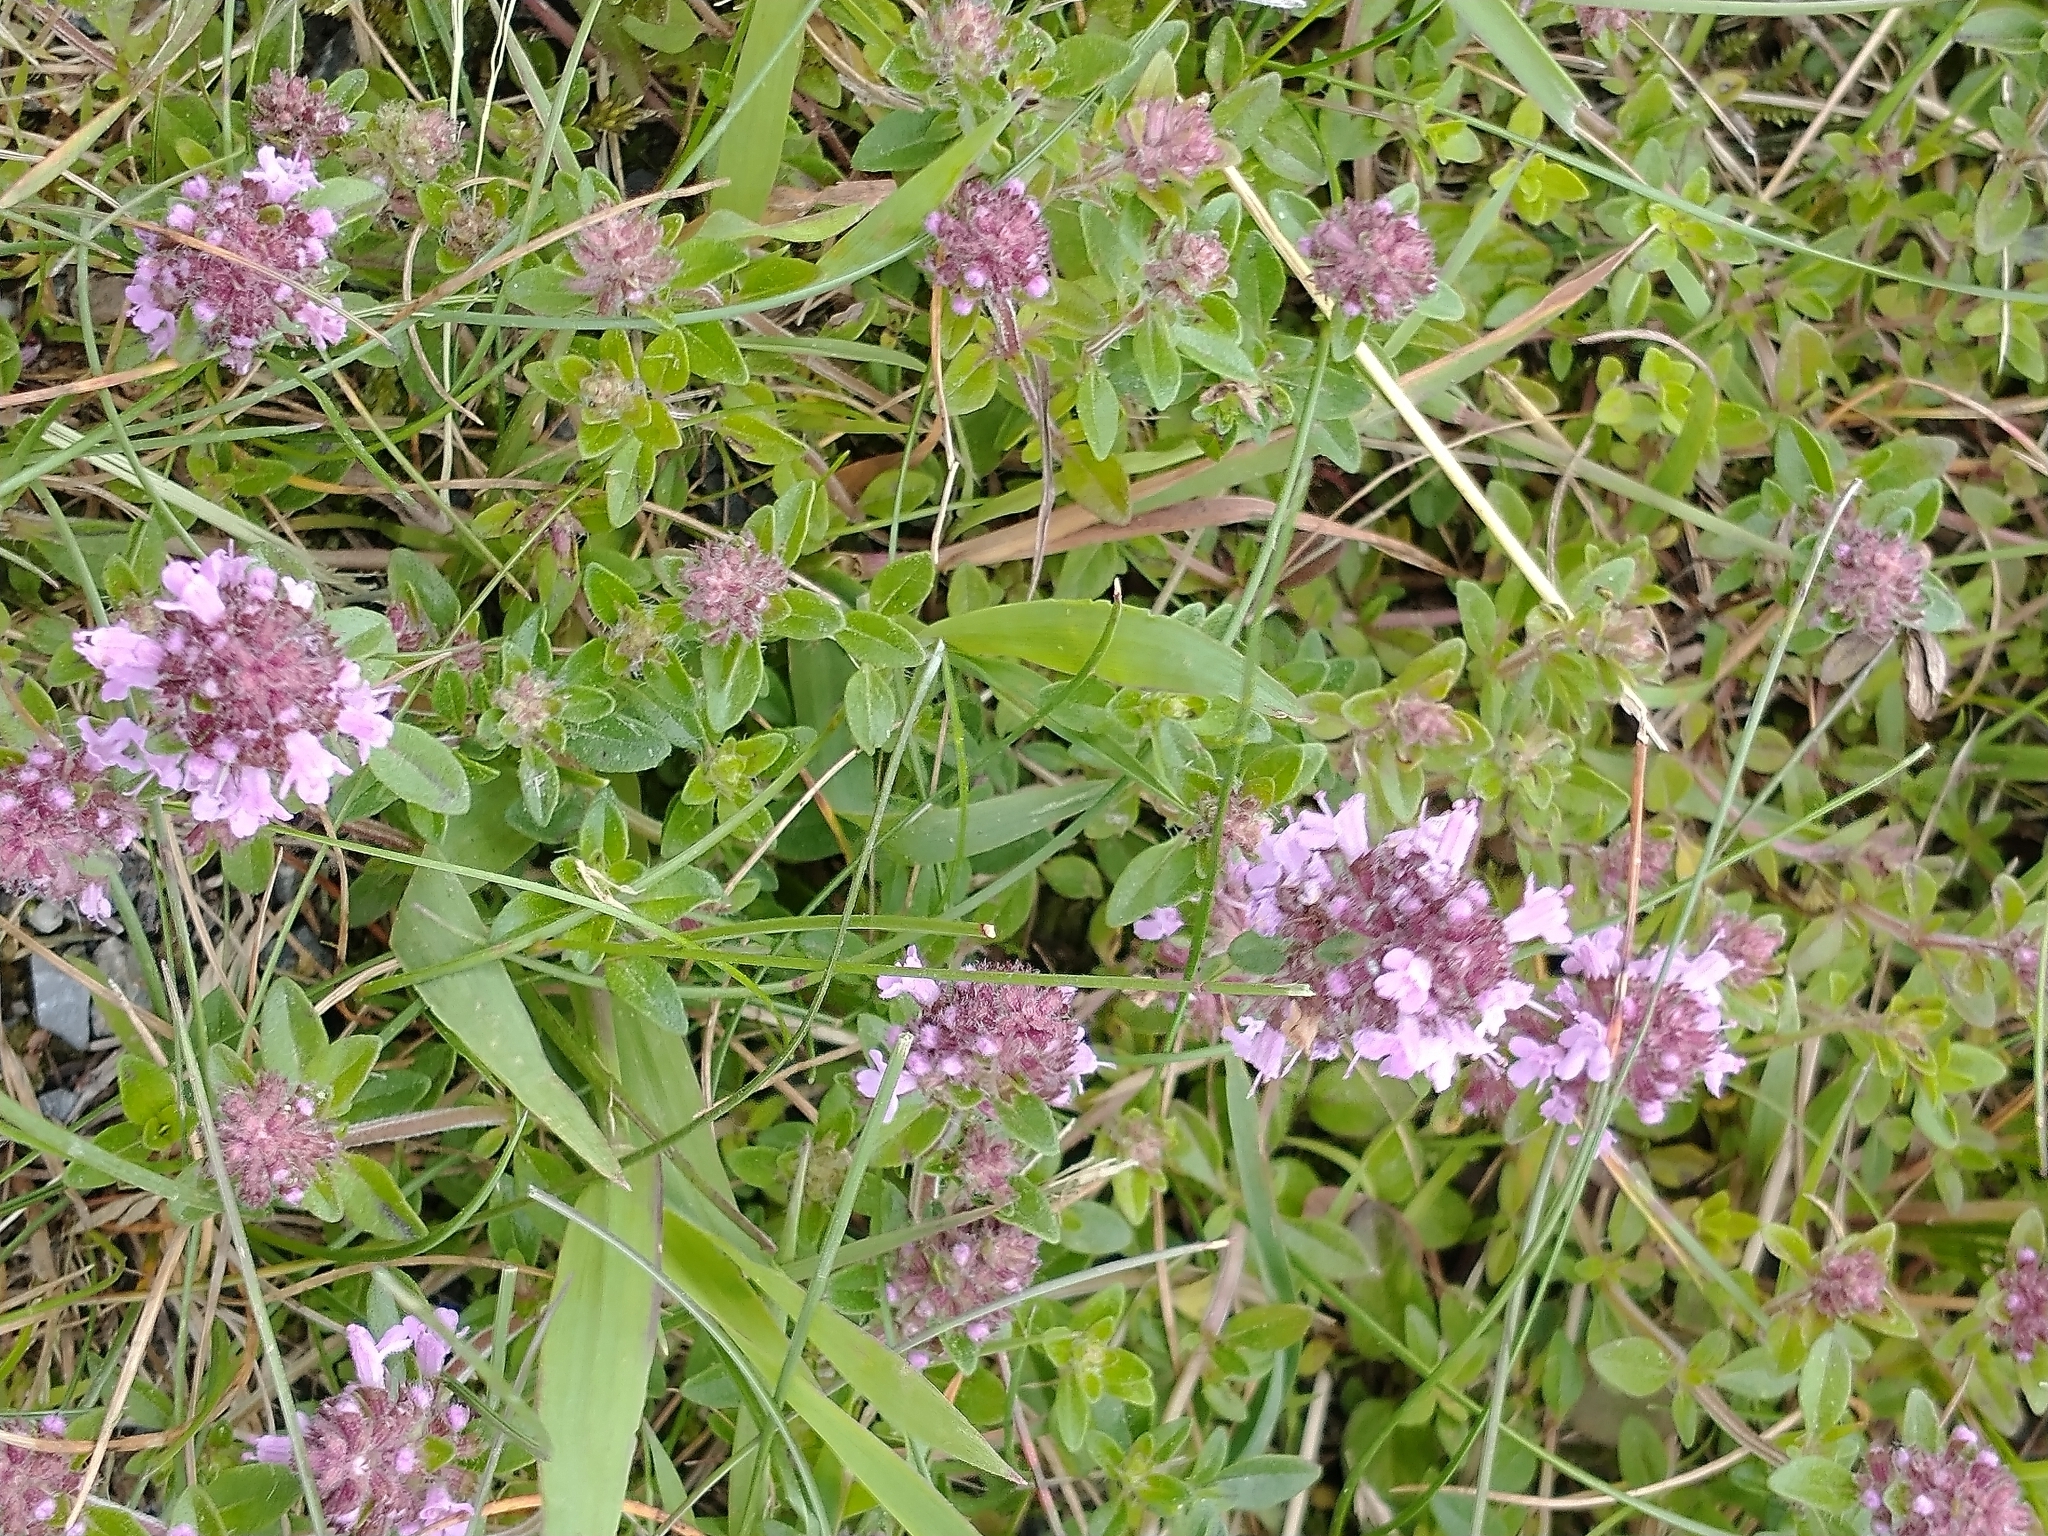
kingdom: Plantae
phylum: Tracheophyta
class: Magnoliopsida
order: Lamiales
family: Lamiaceae
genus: Thymus
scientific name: Thymus pulegioides
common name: Large thyme
